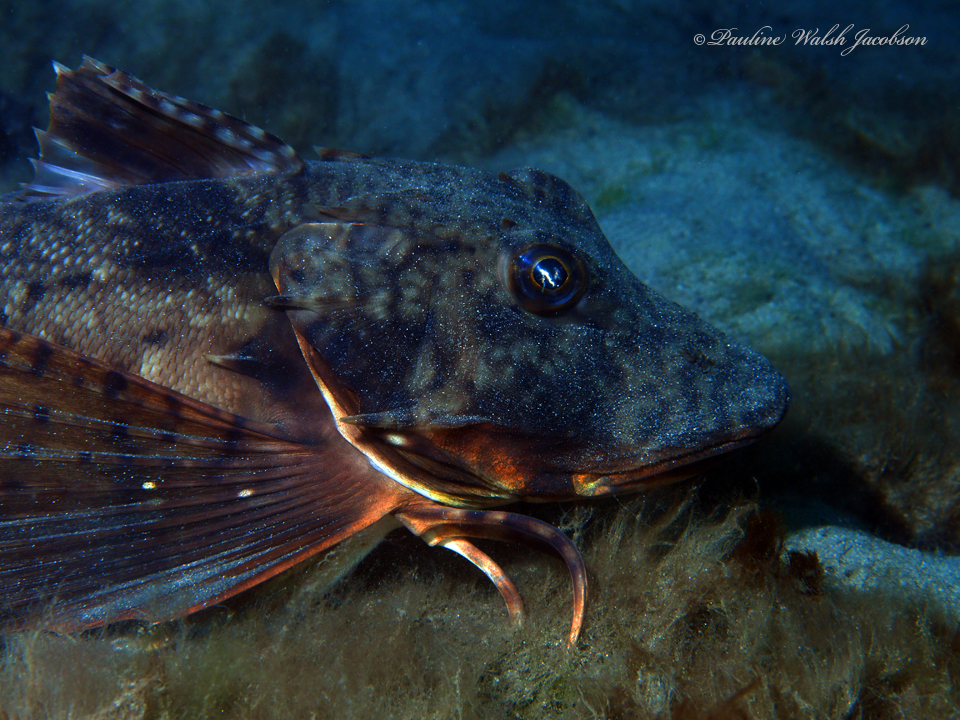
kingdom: Animalia
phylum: Chordata
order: Scorpaeniformes
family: Triglidae
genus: Prionotus
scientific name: Prionotus tribulus
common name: Bighead searobin
